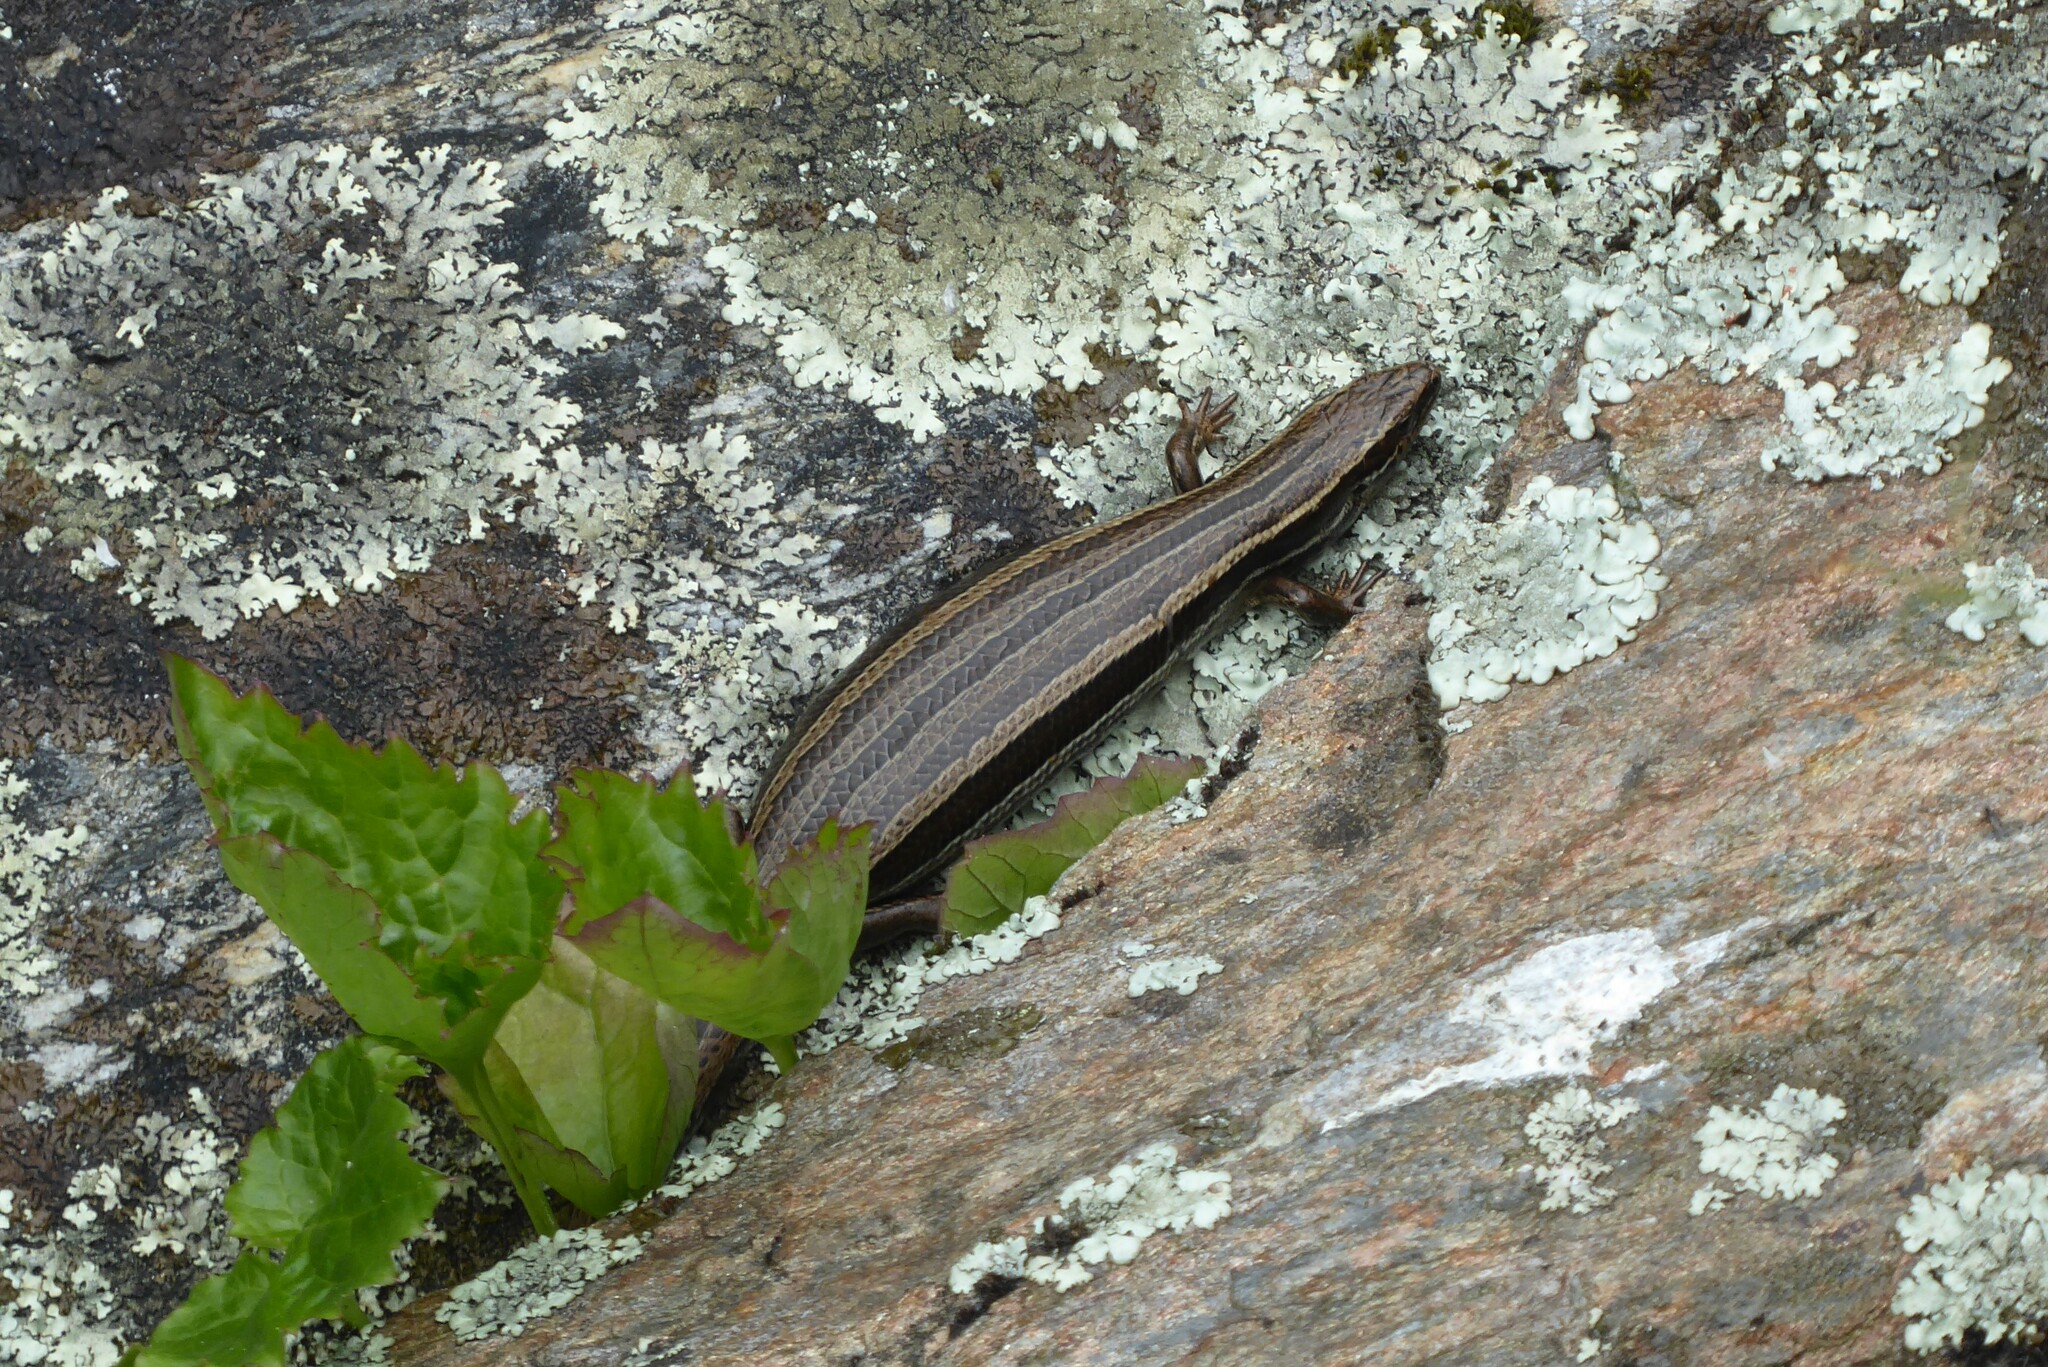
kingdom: Animalia
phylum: Chordata
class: Squamata
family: Scincidae
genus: Oligosoma
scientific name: Oligosoma polychroma
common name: Common new zealand skink
